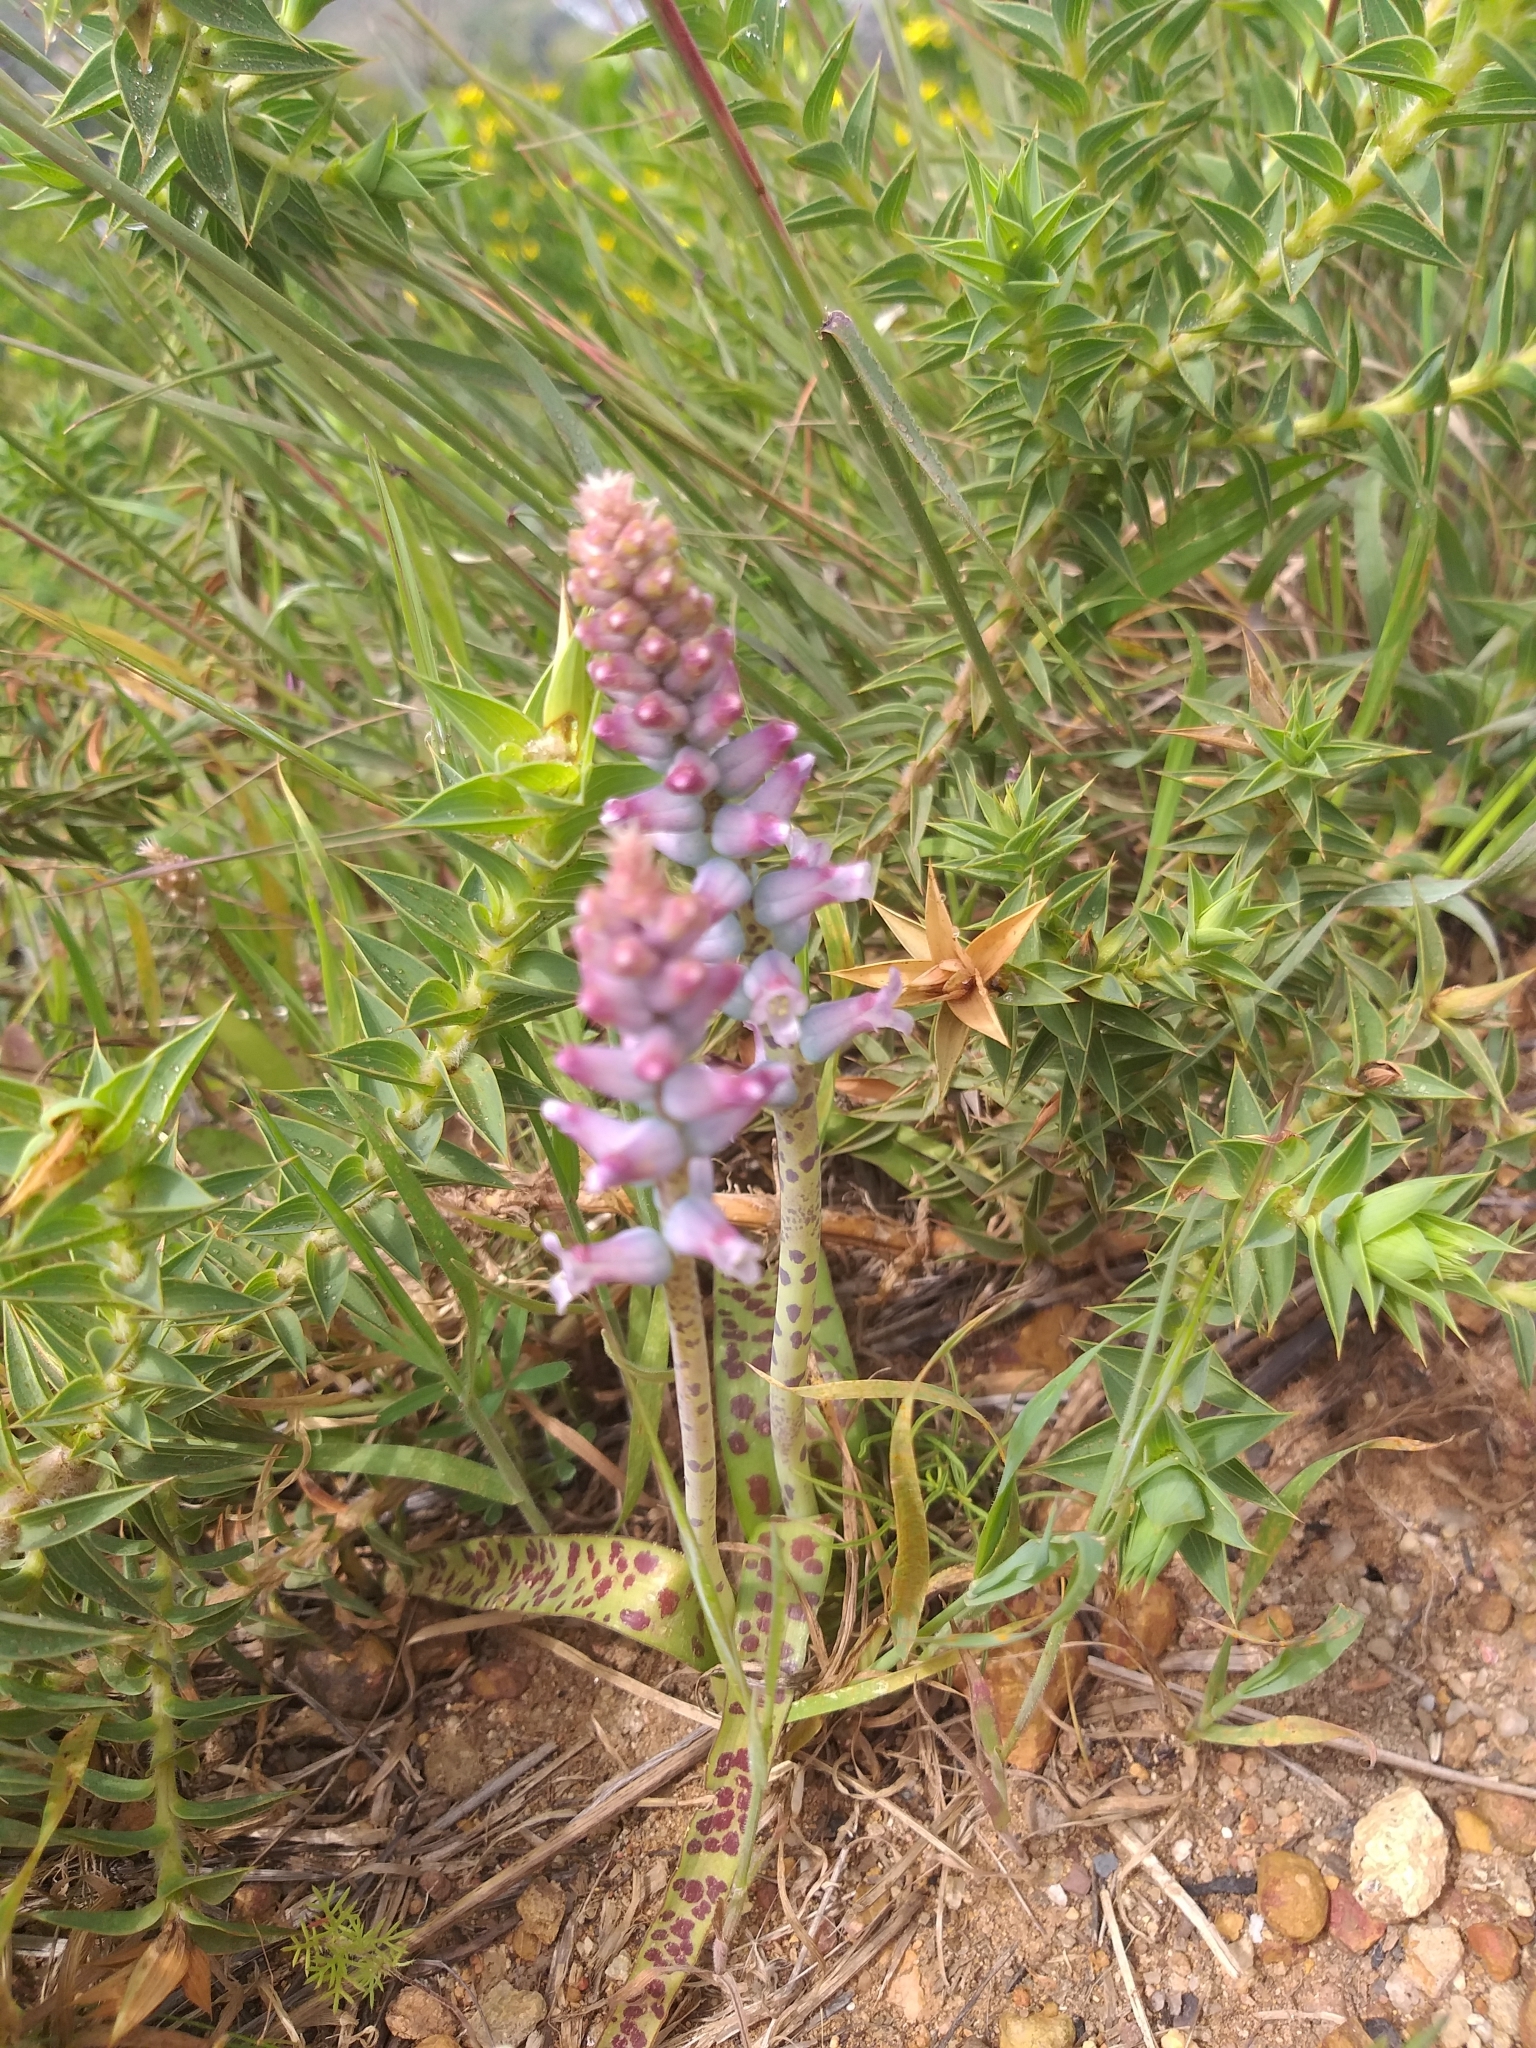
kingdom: Plantae
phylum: Tracheophyta
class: Liliopsida
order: Asparagales
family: Asparagaceae
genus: Lachenalia
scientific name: Lachenalia fistulosa
